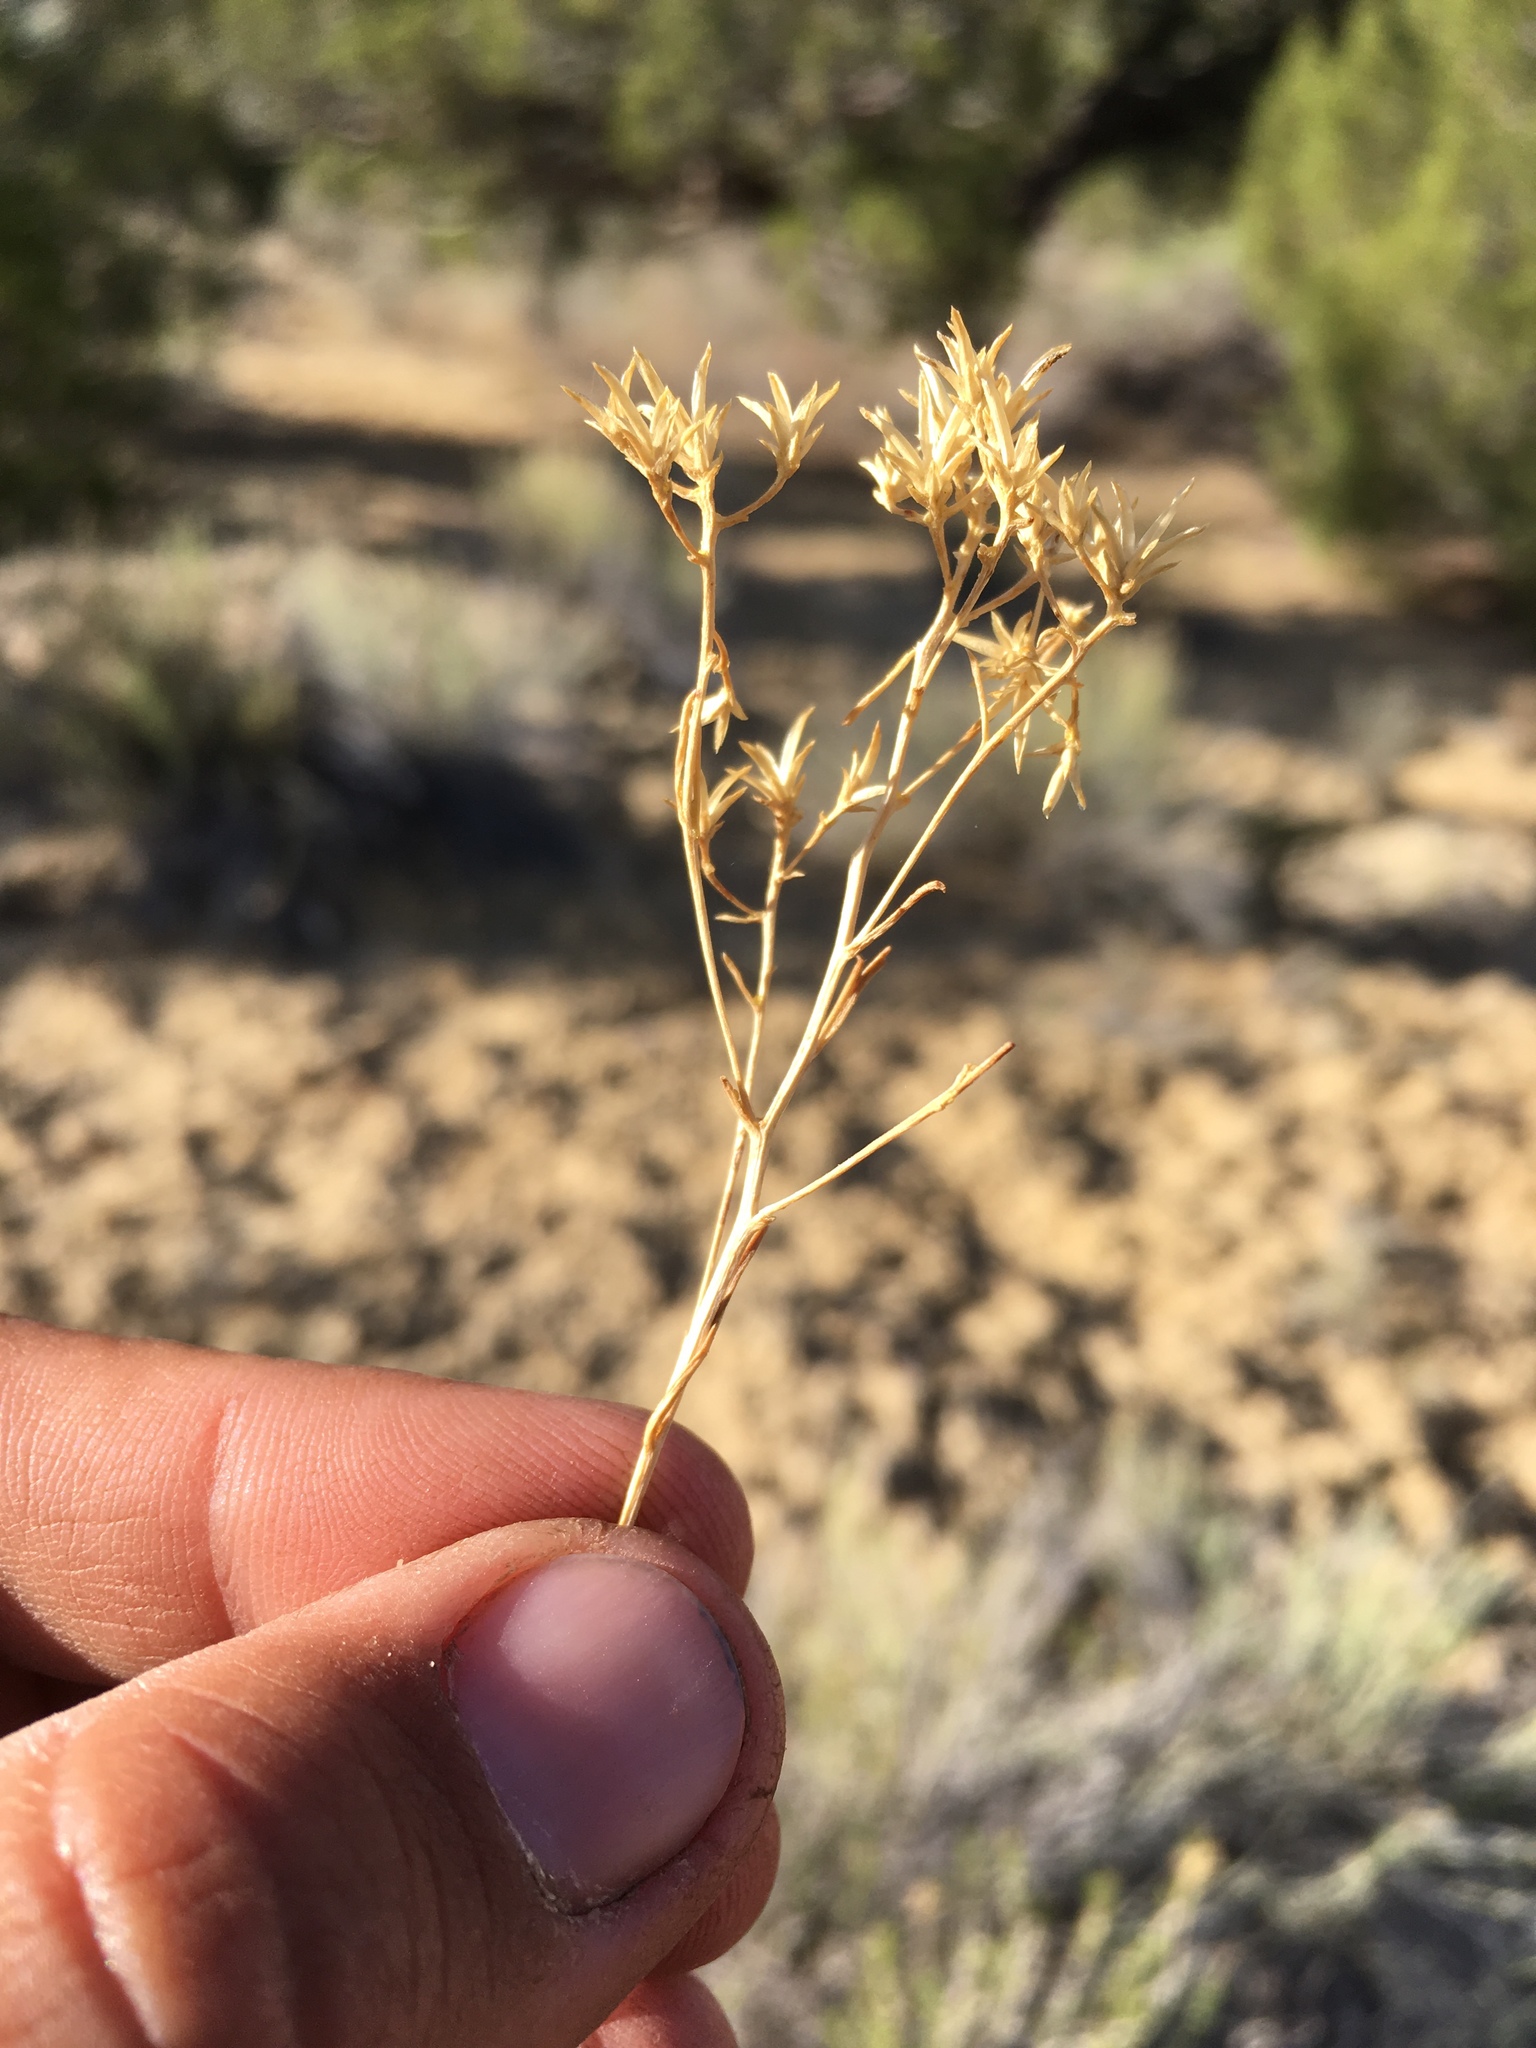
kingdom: Plantae
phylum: Tracheophyta
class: Magnoliopsida
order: Asterales
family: Asteraceae
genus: Lorandersonia
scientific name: Lorandersonia pulchella
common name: Southwestern rabbitbrush
